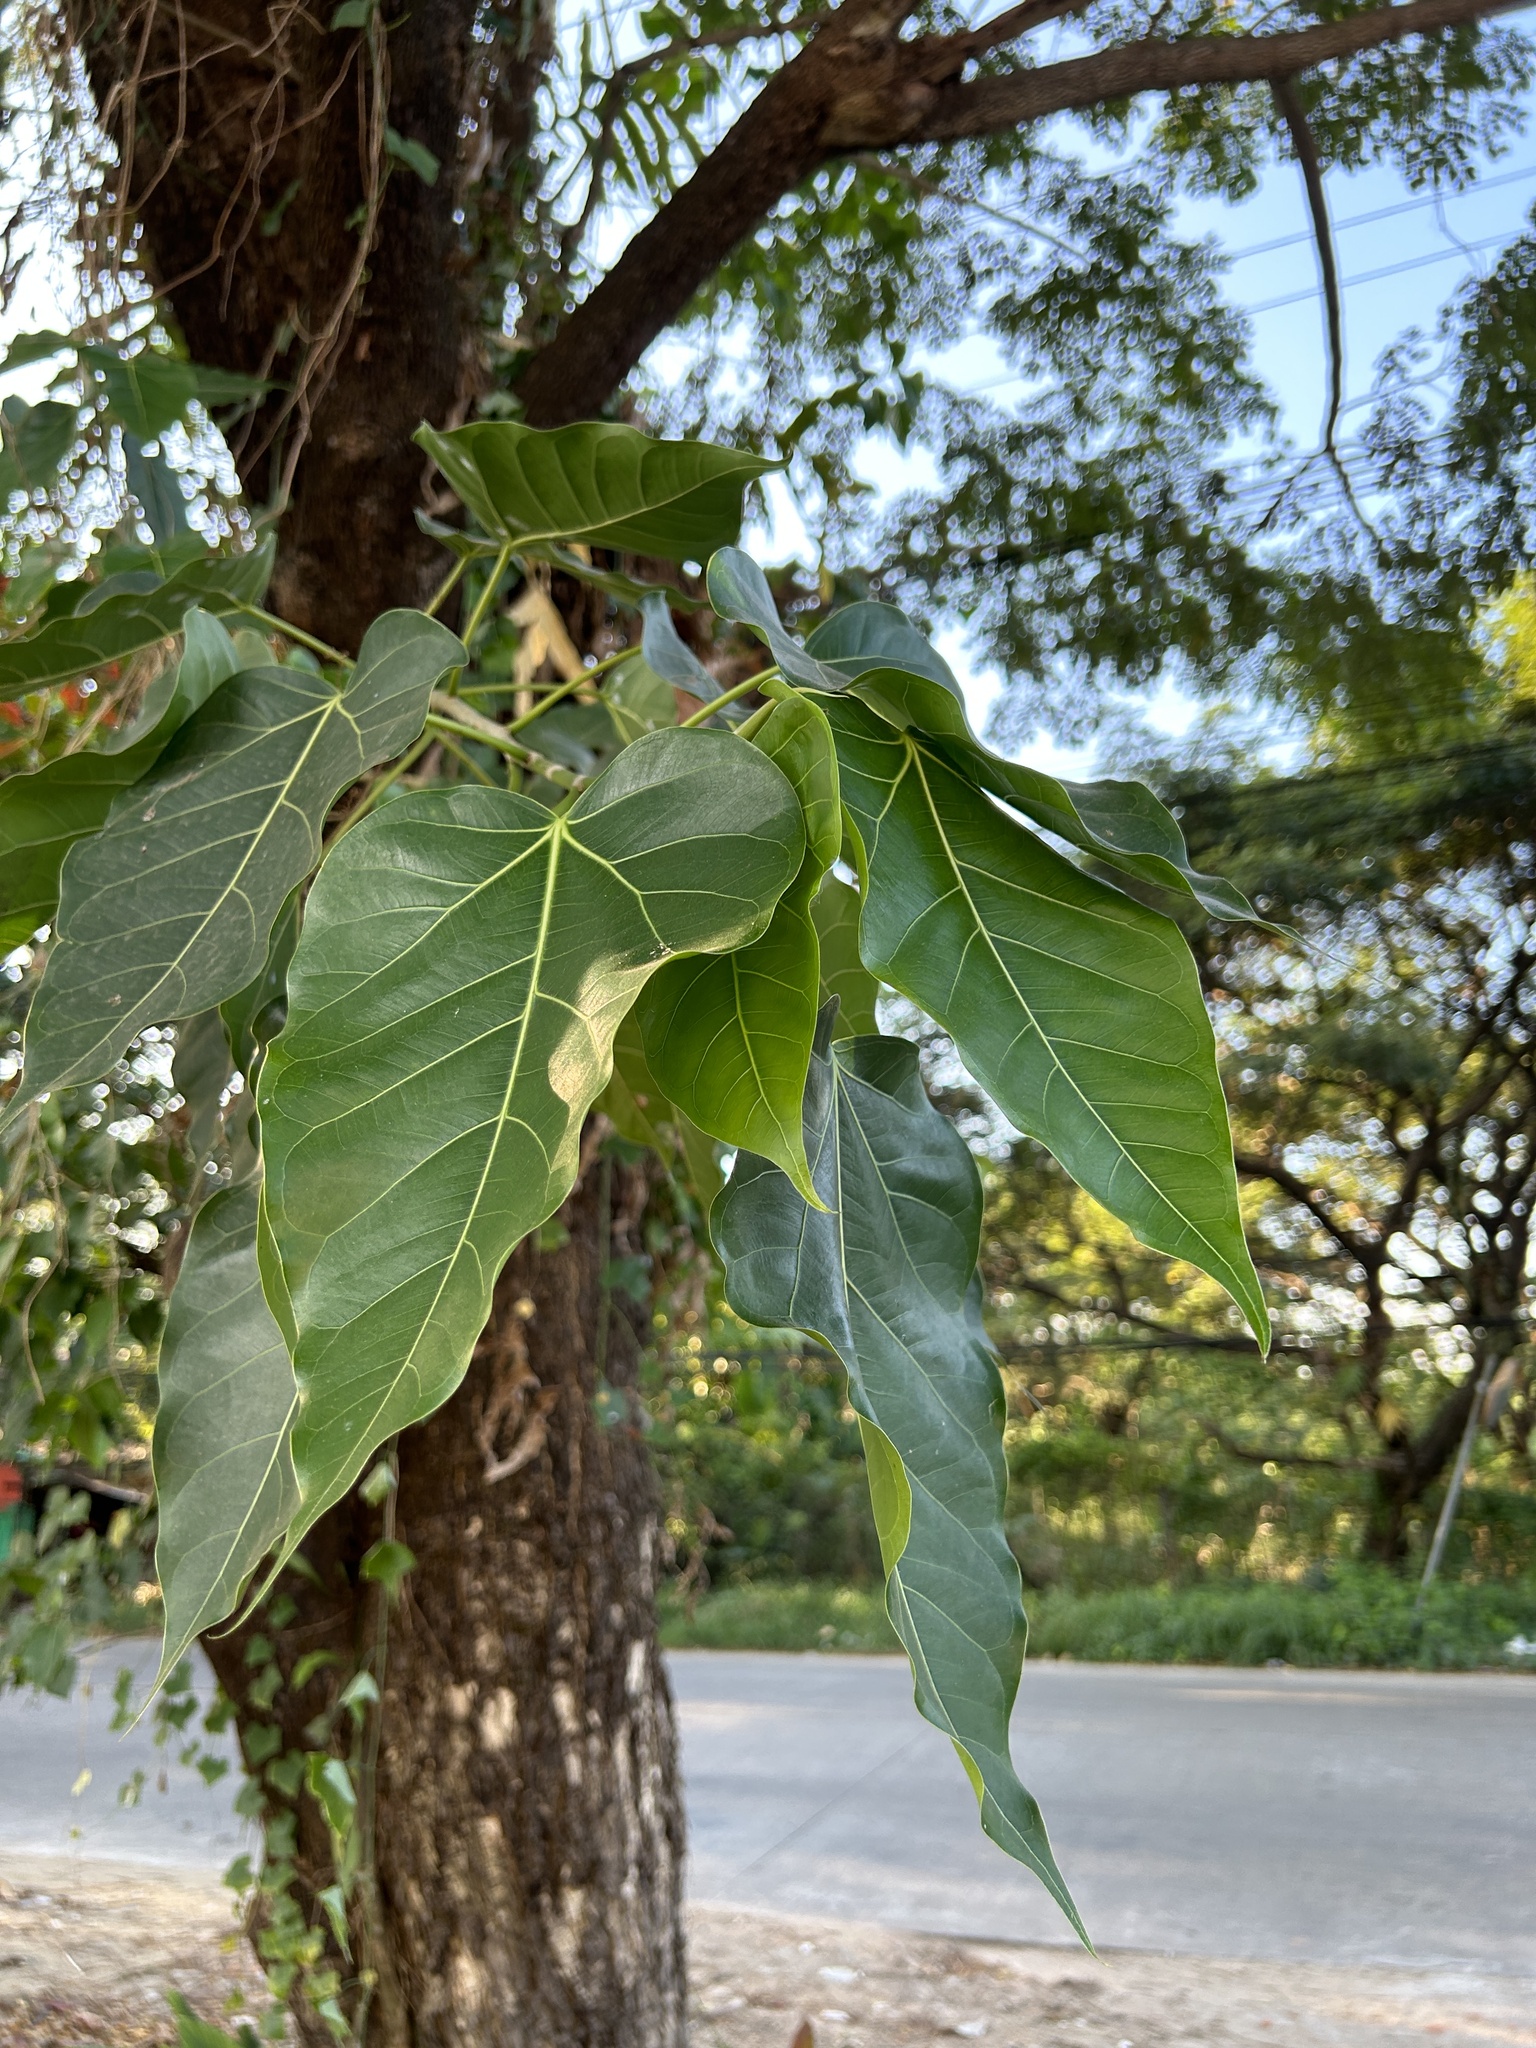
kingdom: Plantae
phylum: Tracheophyta
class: Magnoliopsida
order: Rosales
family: Moraceae
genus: Ficus
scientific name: Ficus religiosa
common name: Bodhi tree
